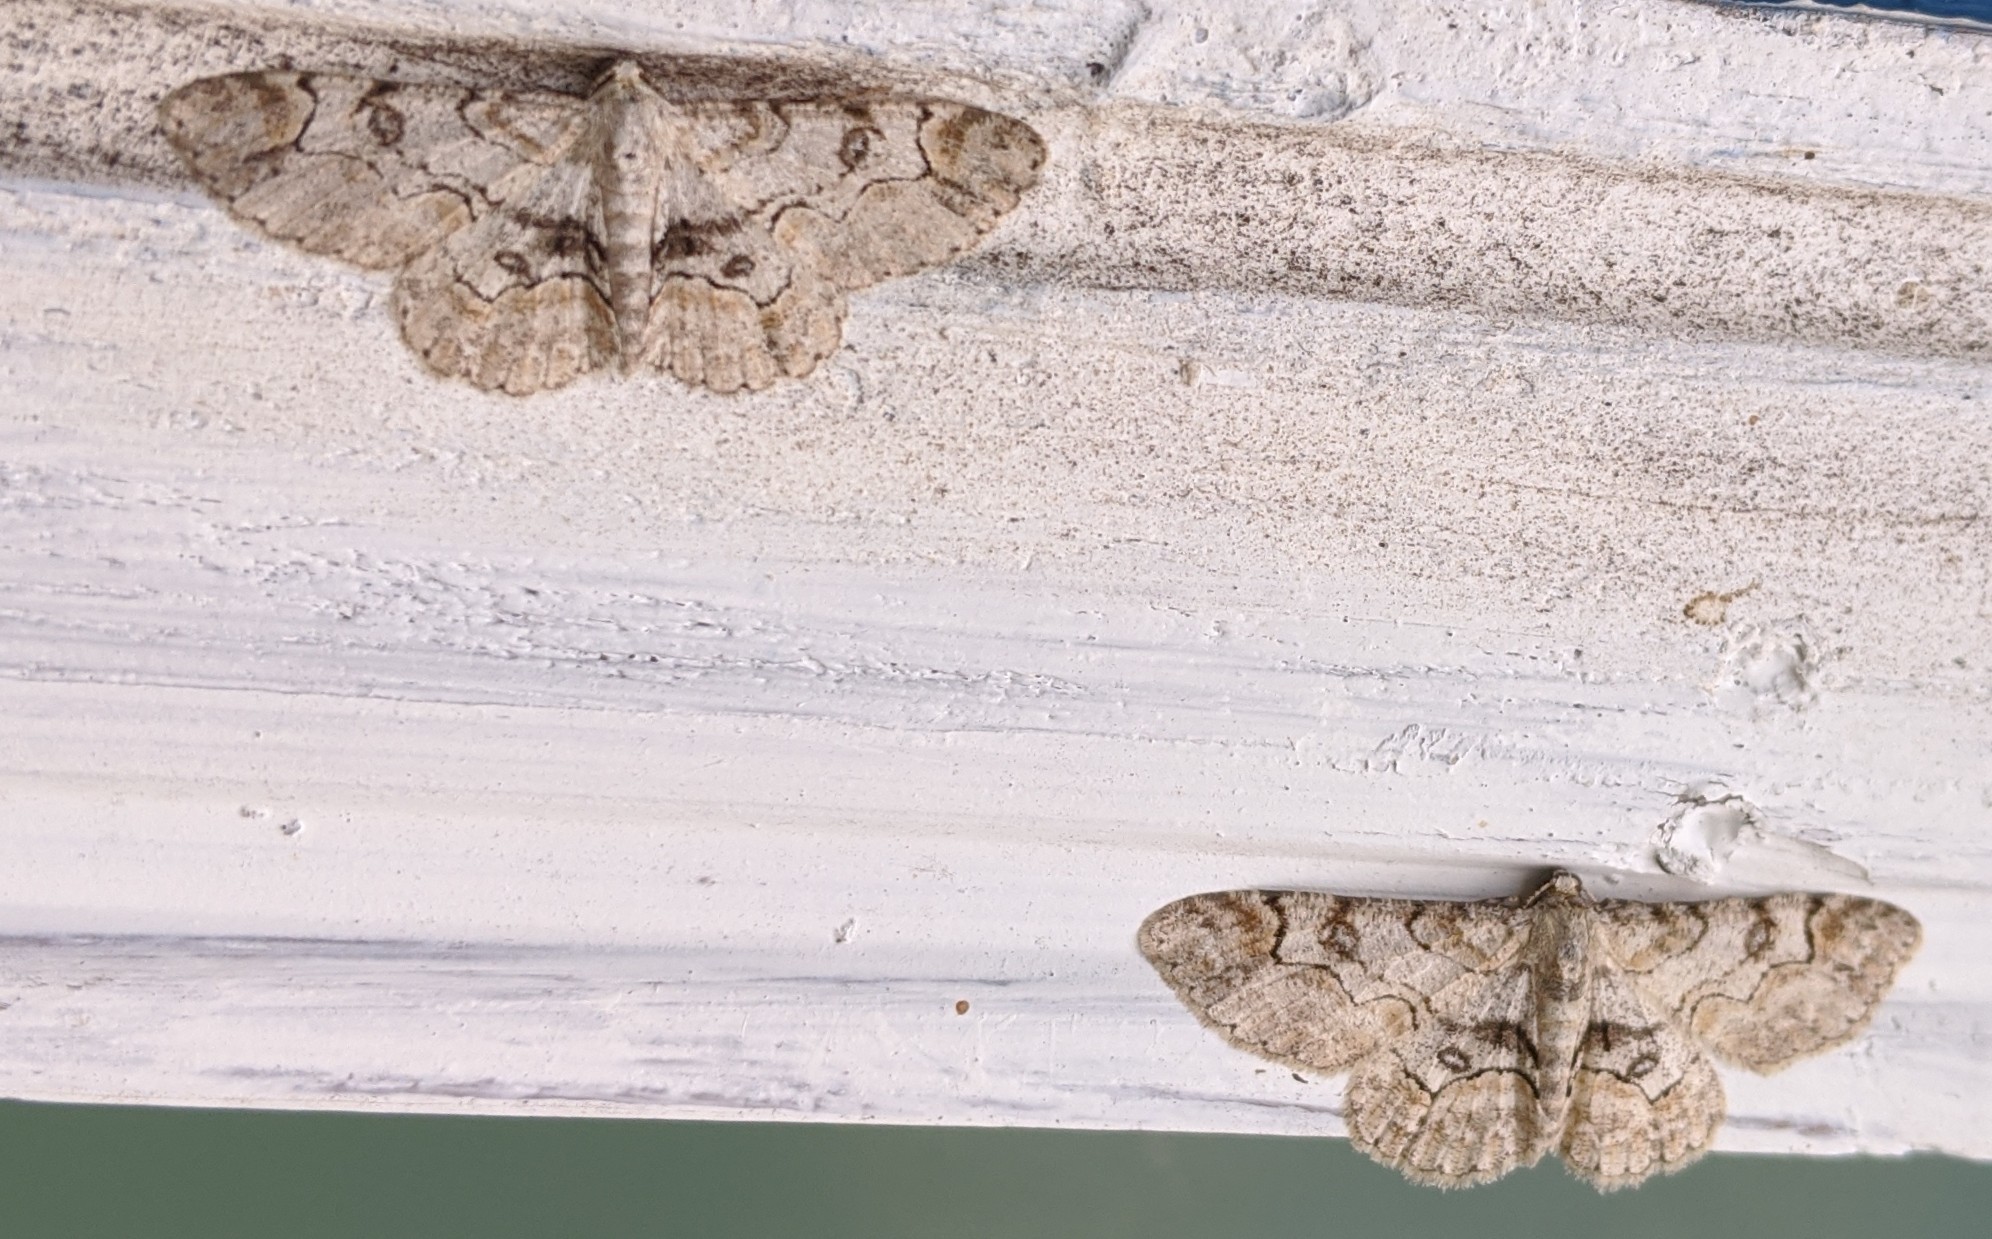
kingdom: Animalia
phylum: Arthropoda
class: Insecta
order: Lepidoptera
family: Geometridae
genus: Iridopsis
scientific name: Iridopsis larvaria
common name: Bent-line gray
